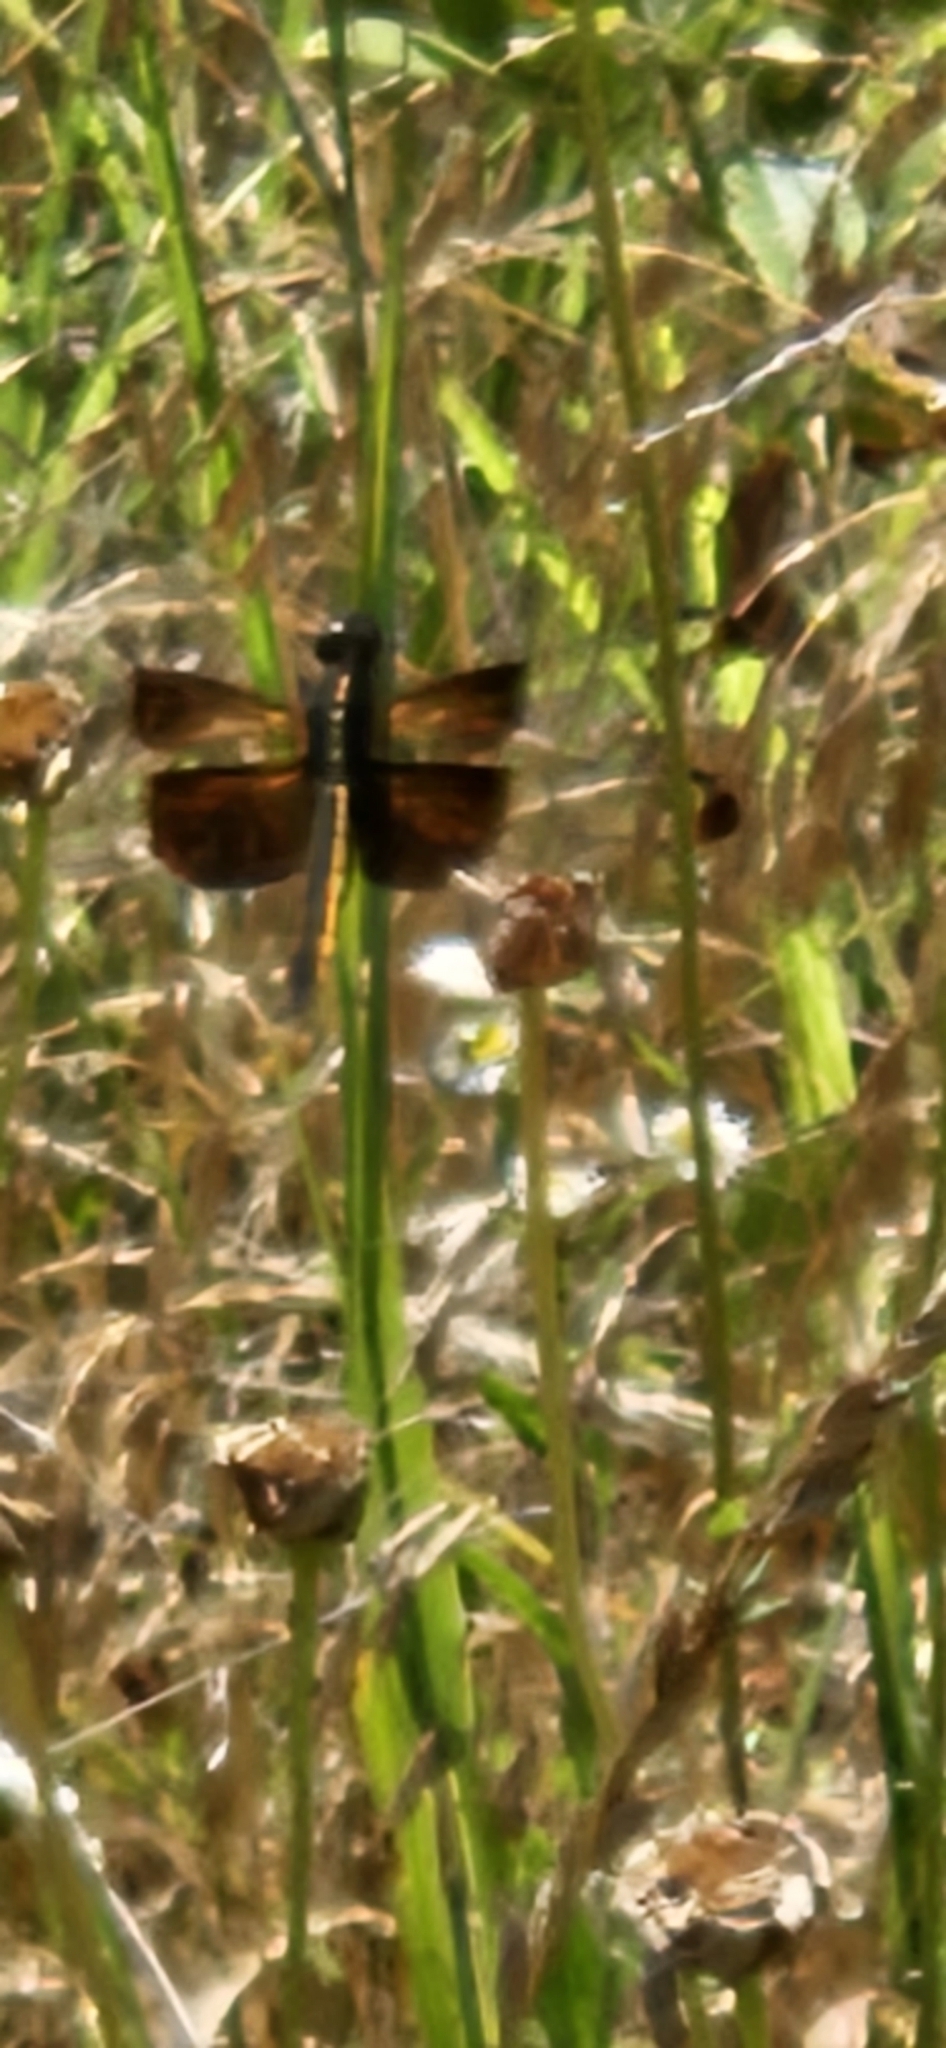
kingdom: Animalia
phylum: Arthropoda
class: Insecta
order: Odonata
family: Libellulidae
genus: Libellula
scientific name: Libellula luctuosa
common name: Widow skimmer
